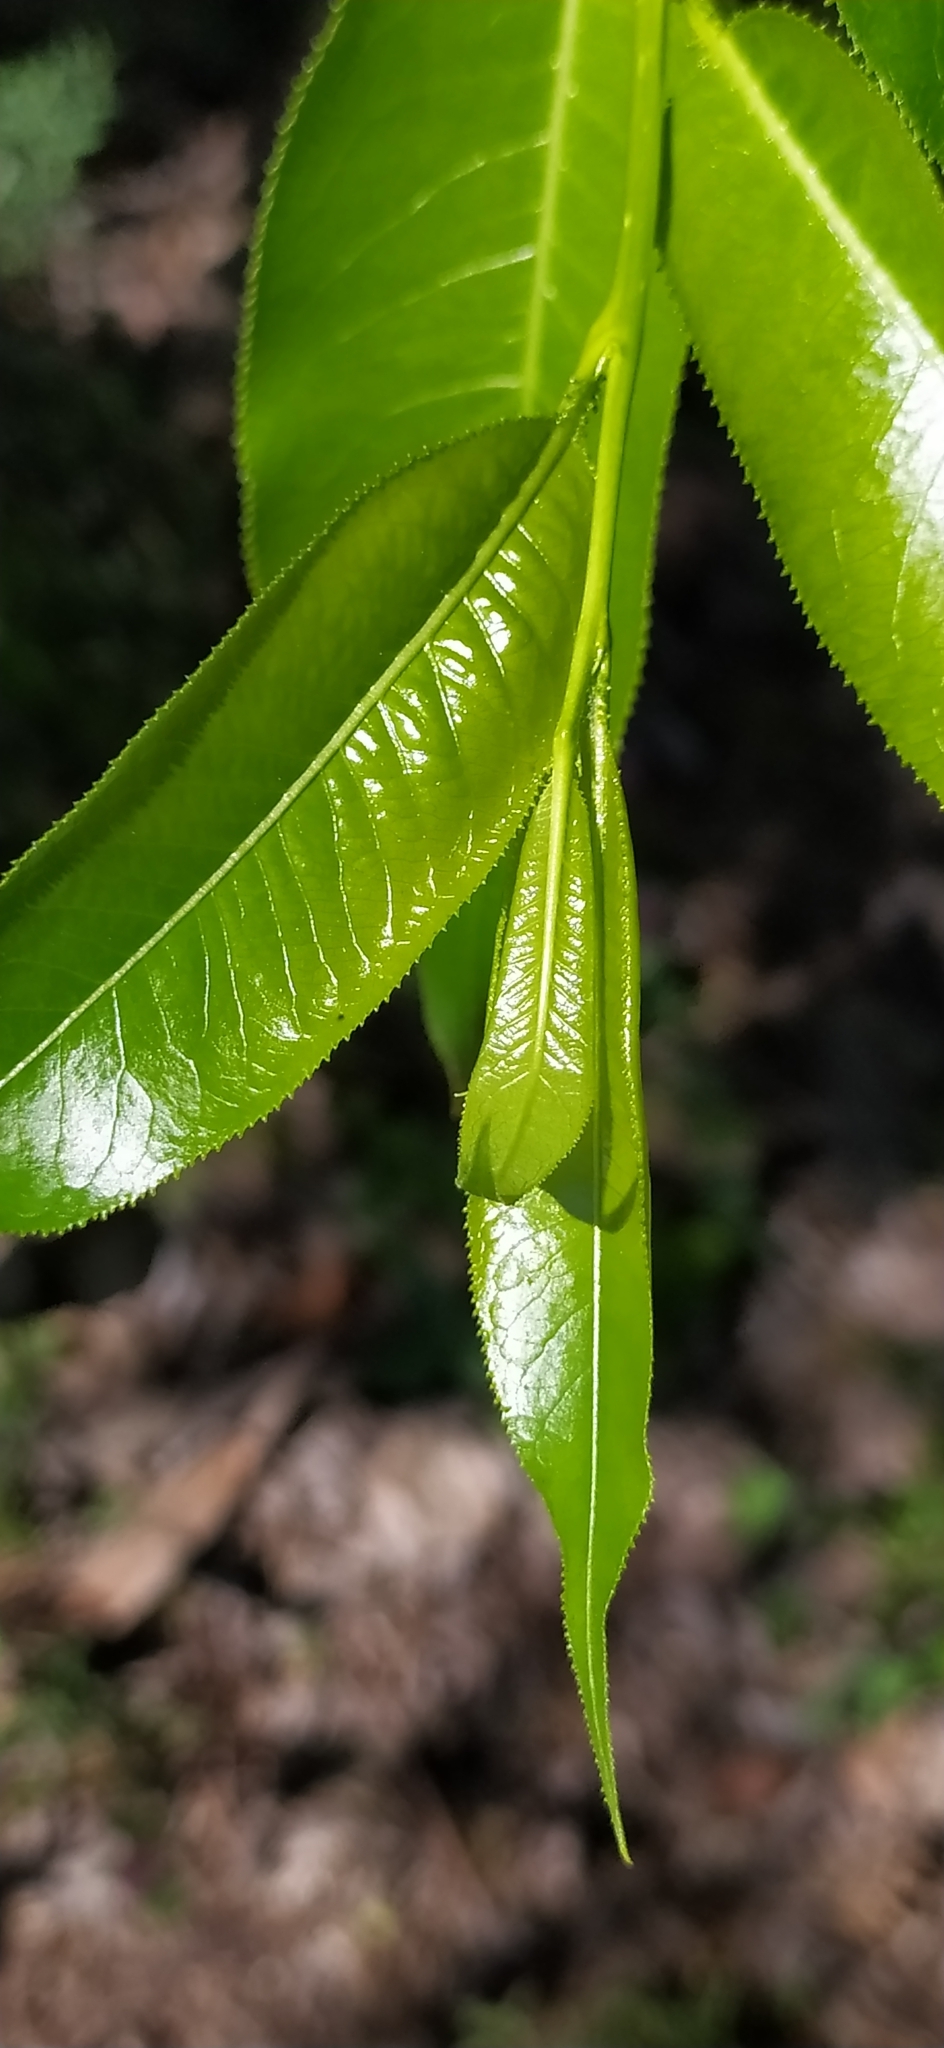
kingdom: Plantae
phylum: Tracheophyta
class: Magnoliopsida
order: Malpighiales
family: Salicaceae
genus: Salix
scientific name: Salix pentandra
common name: Bay willow
